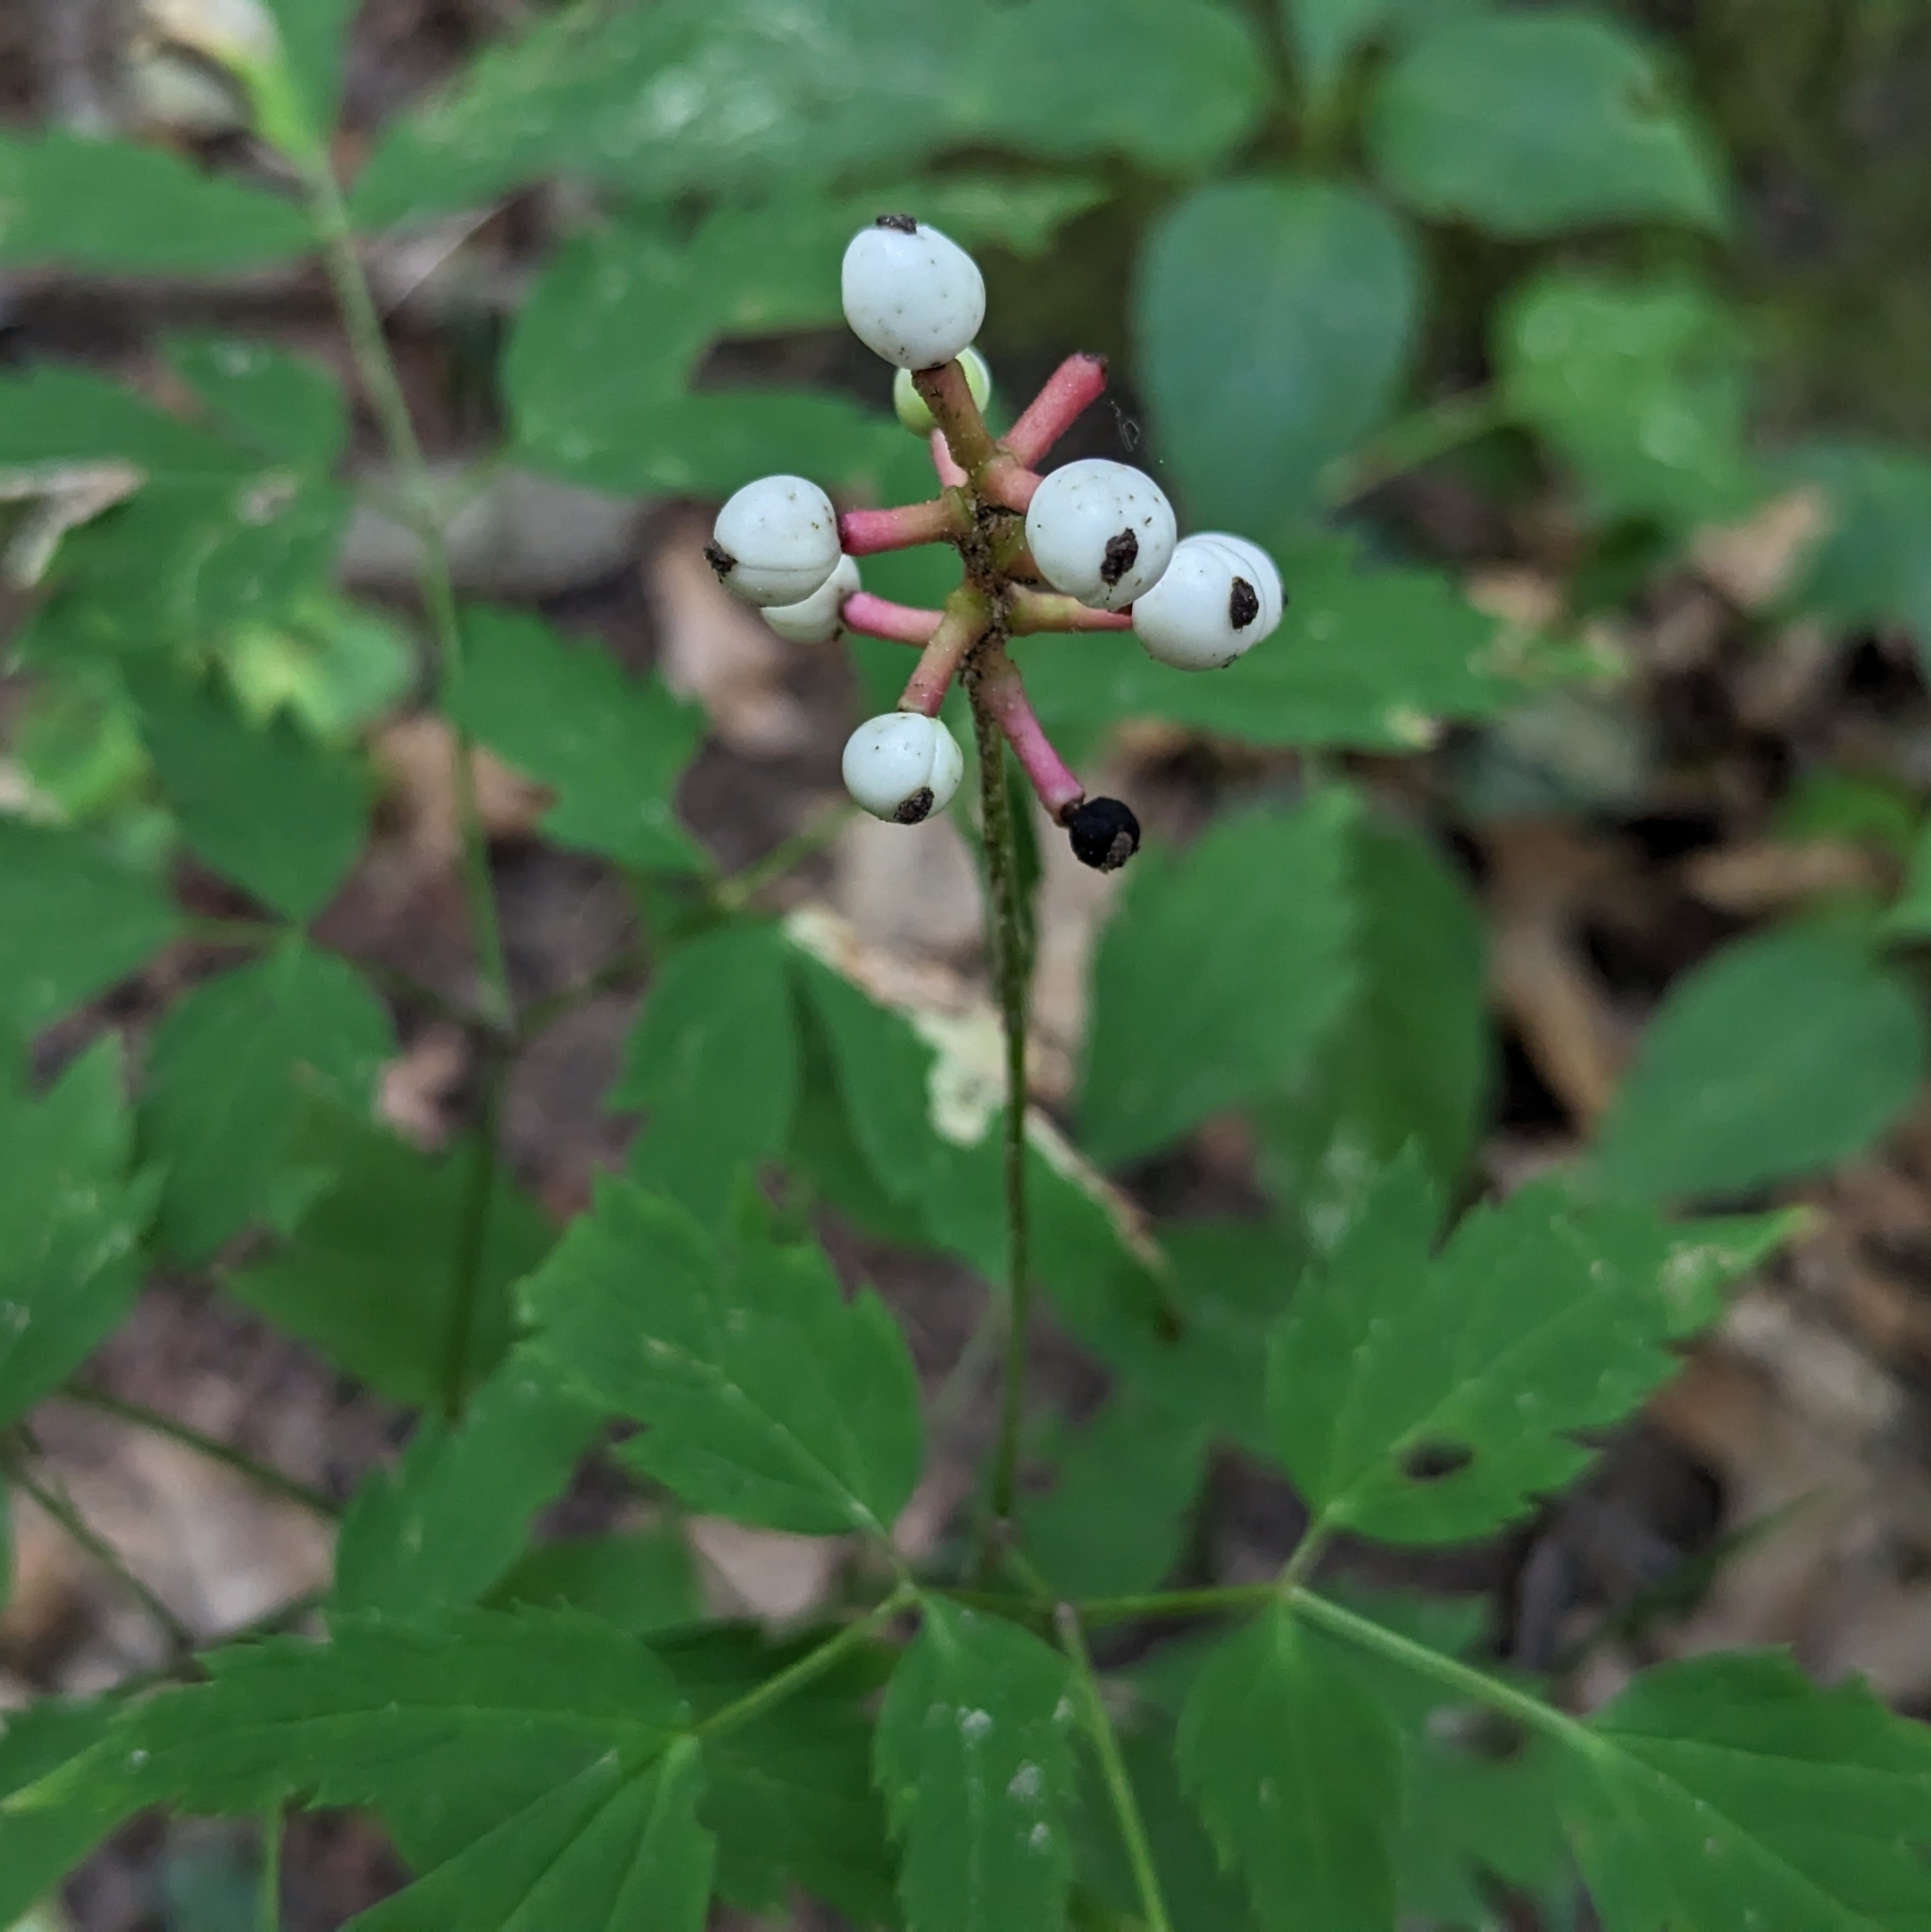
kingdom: Plantae
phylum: Tracheophyta
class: Magnoliopsida
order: Ranunculales
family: Ranunculaceae
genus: Actaea
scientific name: Actaea pachypoda
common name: Doll's-eyes
